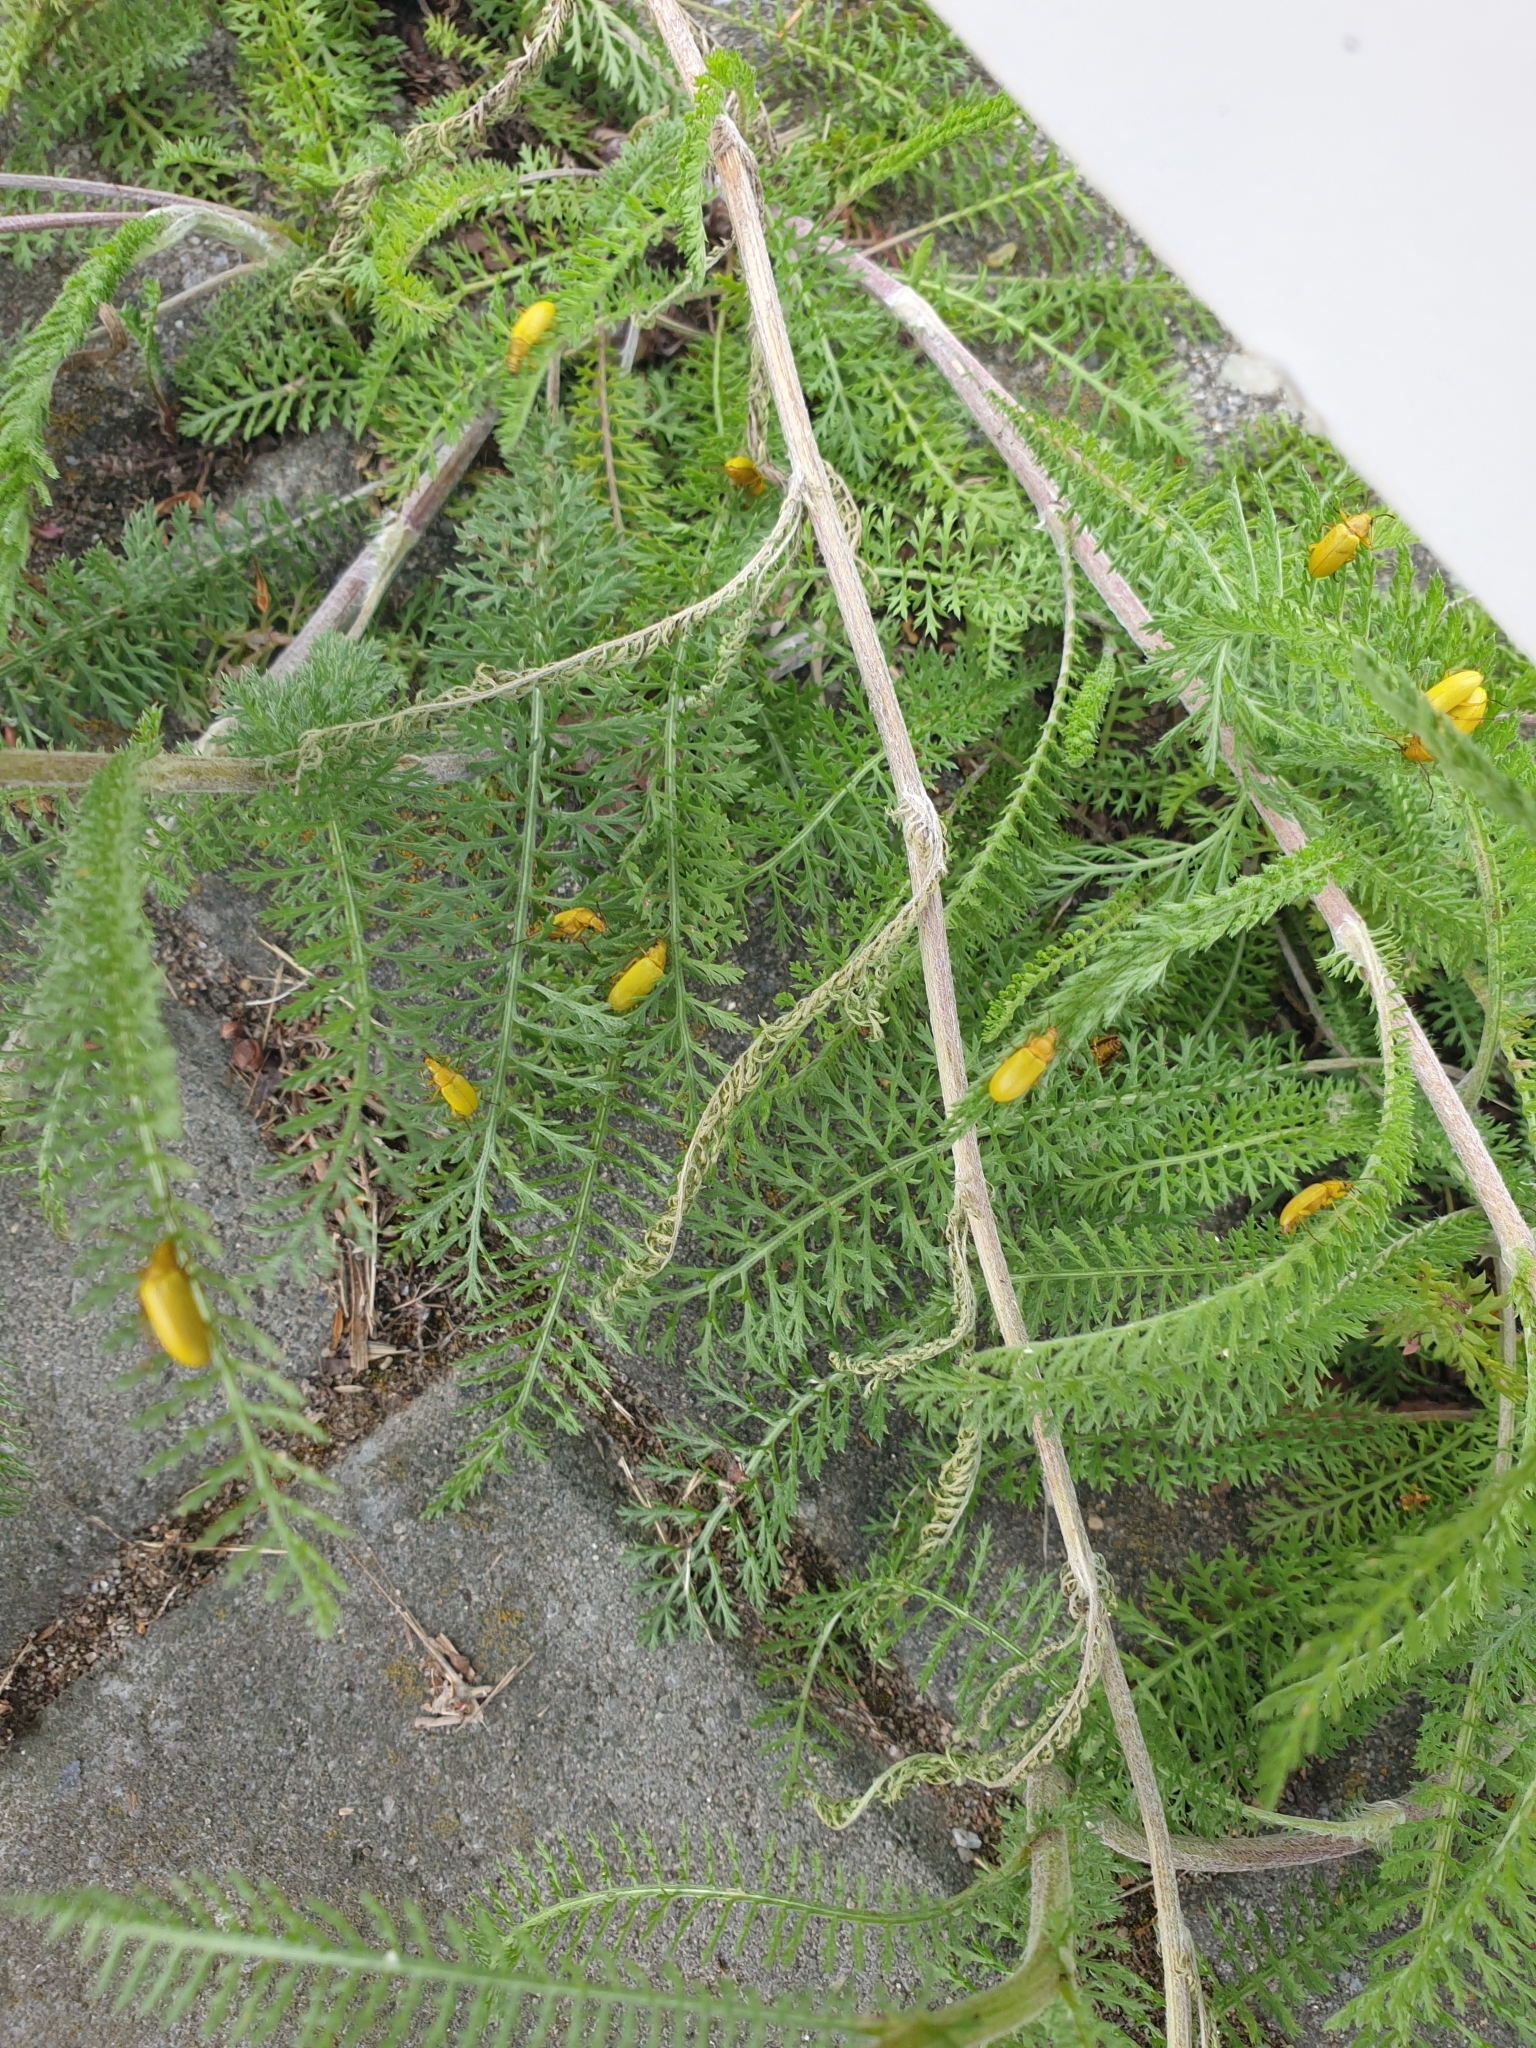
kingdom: Animalia
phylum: Arthropoda
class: Insecta
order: Coleoptera
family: Tenebrionidae
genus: Cteniopus
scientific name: Cteniopus sulphureus
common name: Sulphur beetle
